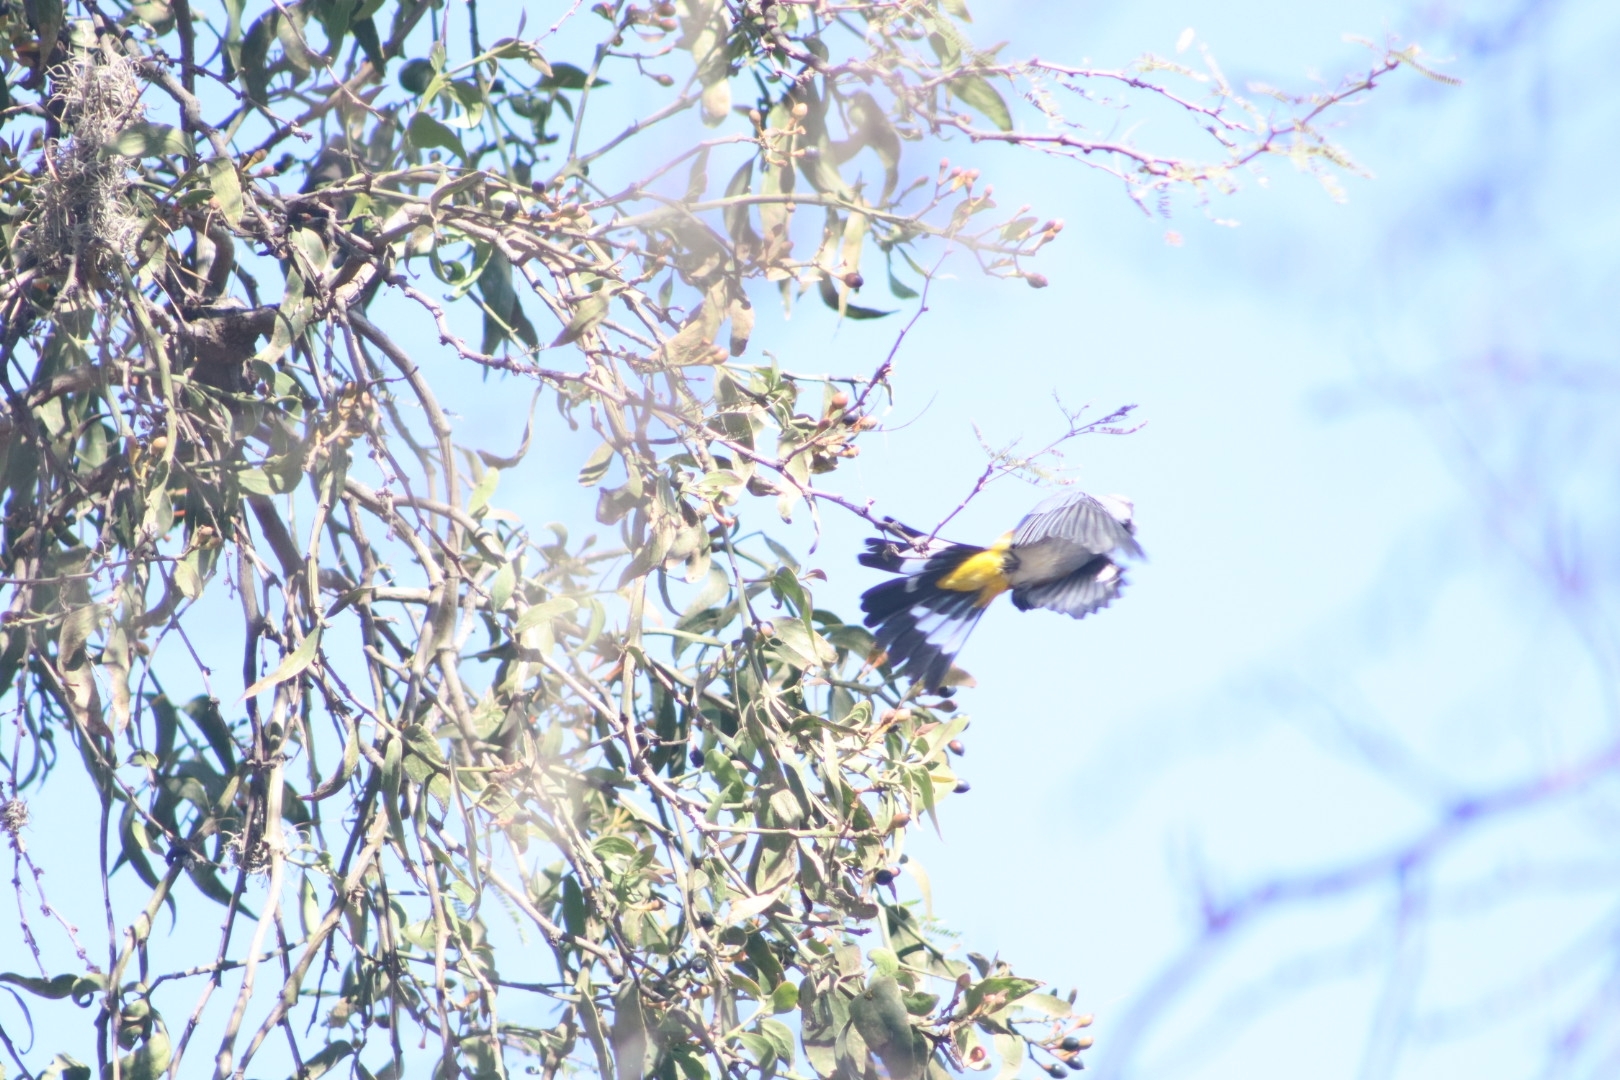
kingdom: Animalia
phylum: Chordata
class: Aves
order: Passeriformes
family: Ptilogonatidae
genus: Ptilogonys
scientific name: Ptilogonys cinereus
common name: Gray silky-flycatcher
